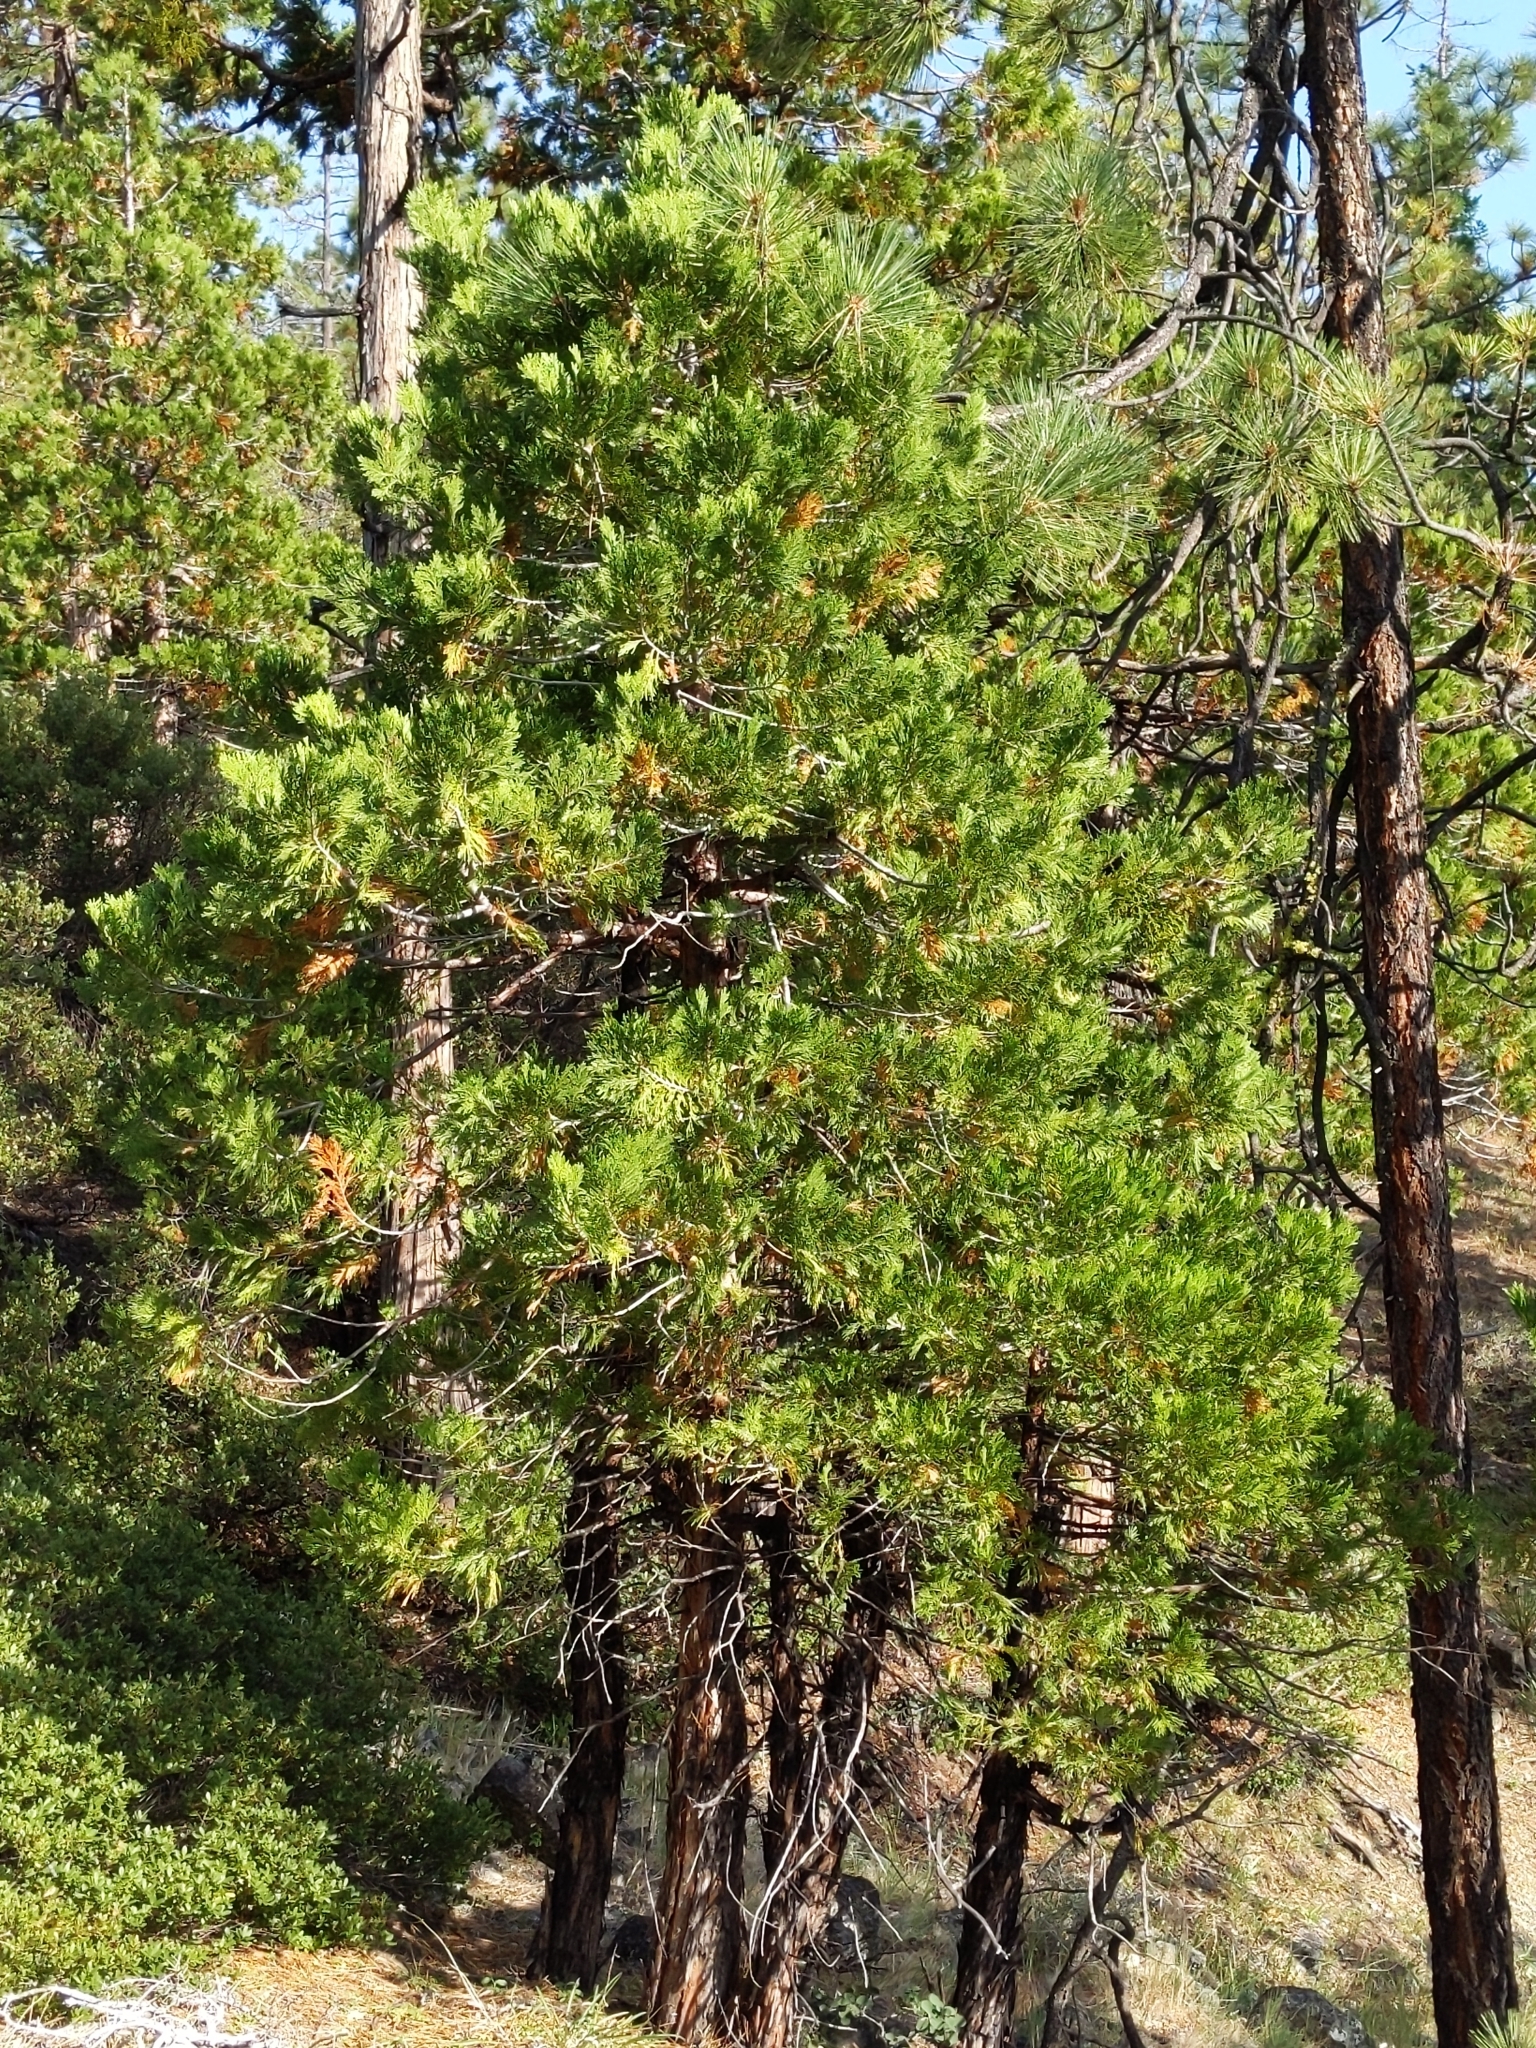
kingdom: Plantae
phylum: Tracheophyta
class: Pinopsida
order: Pinales
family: Cupressaceae
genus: Calocedrus
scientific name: Calocedrus decurrens
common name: Californian incense-cedar
